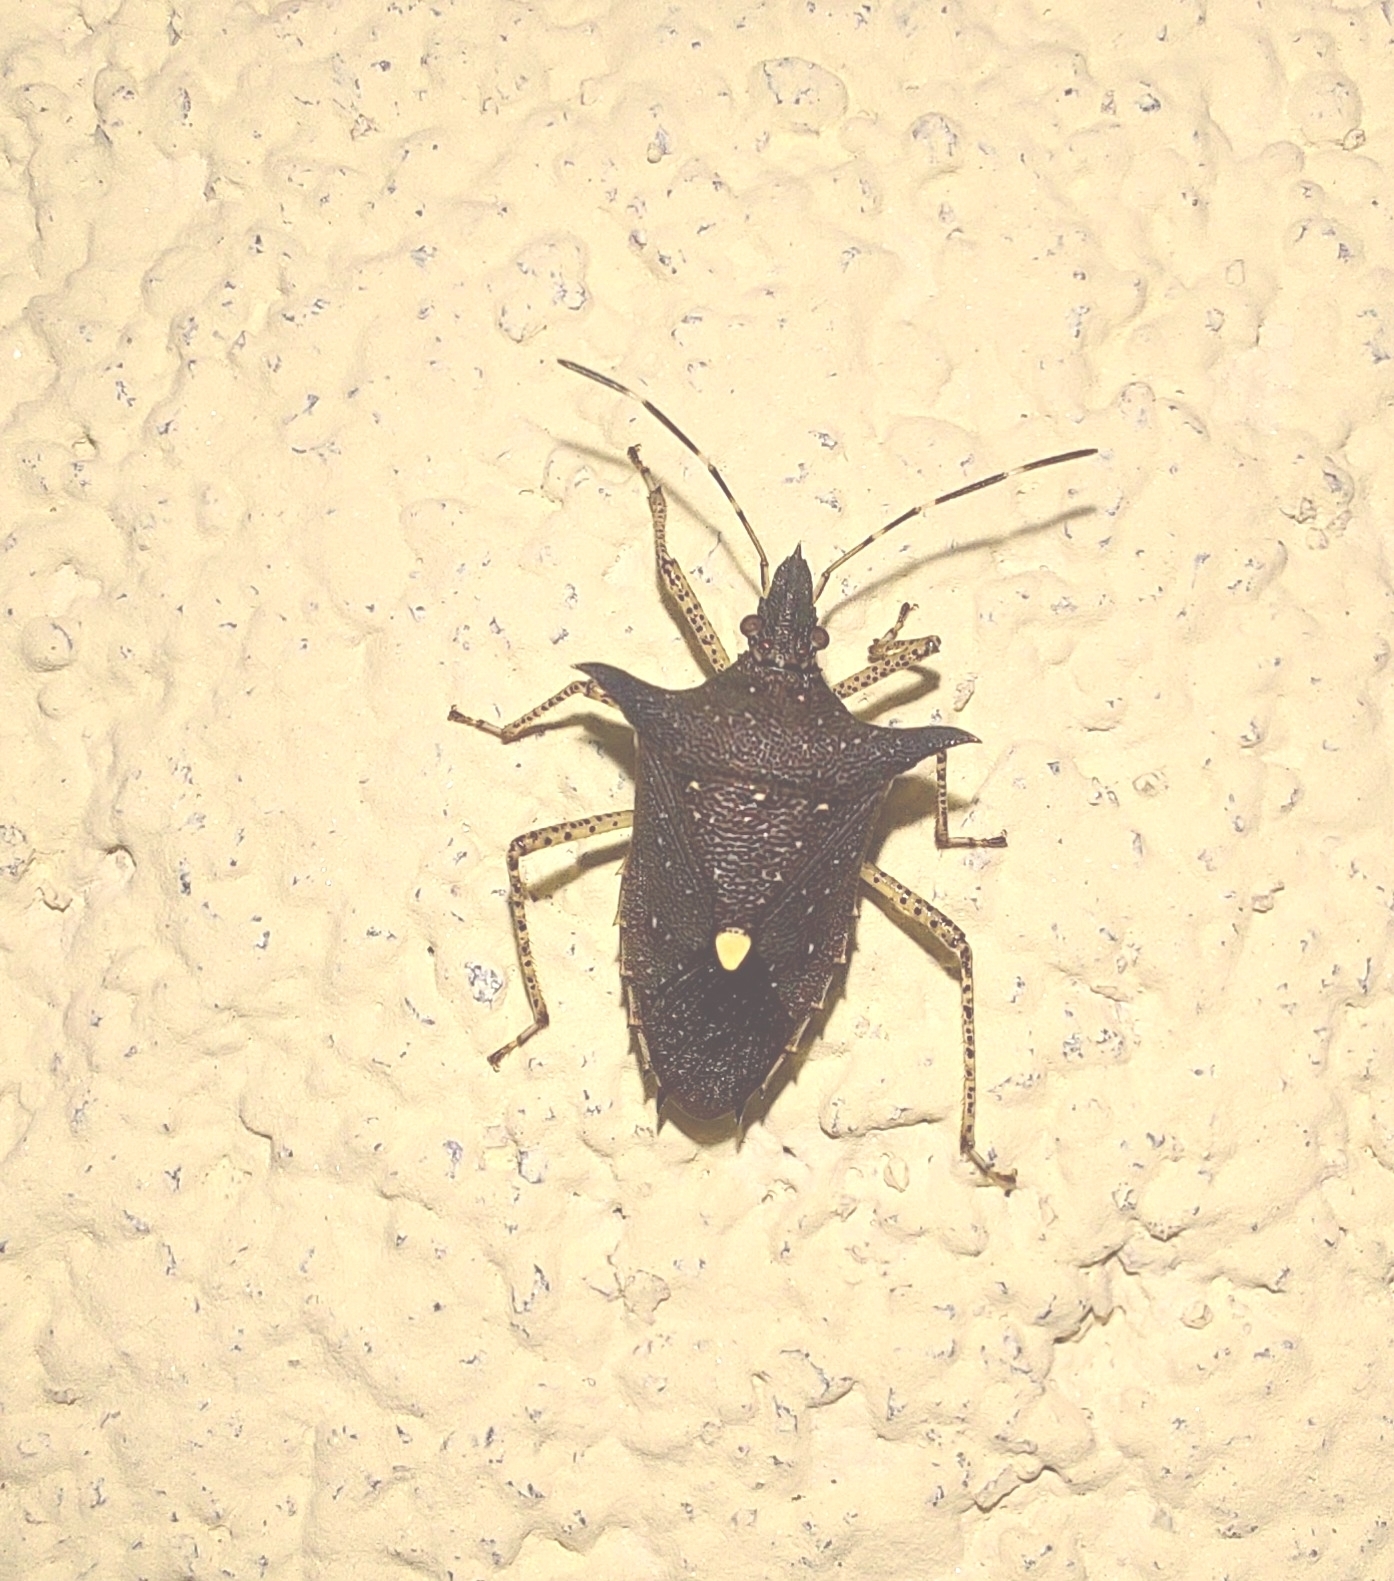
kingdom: Animalia
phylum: Arthropoda
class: Insecta
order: Hemiptera
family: Pentatomidae
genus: Proxys
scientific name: Proxys albopunctulatus
